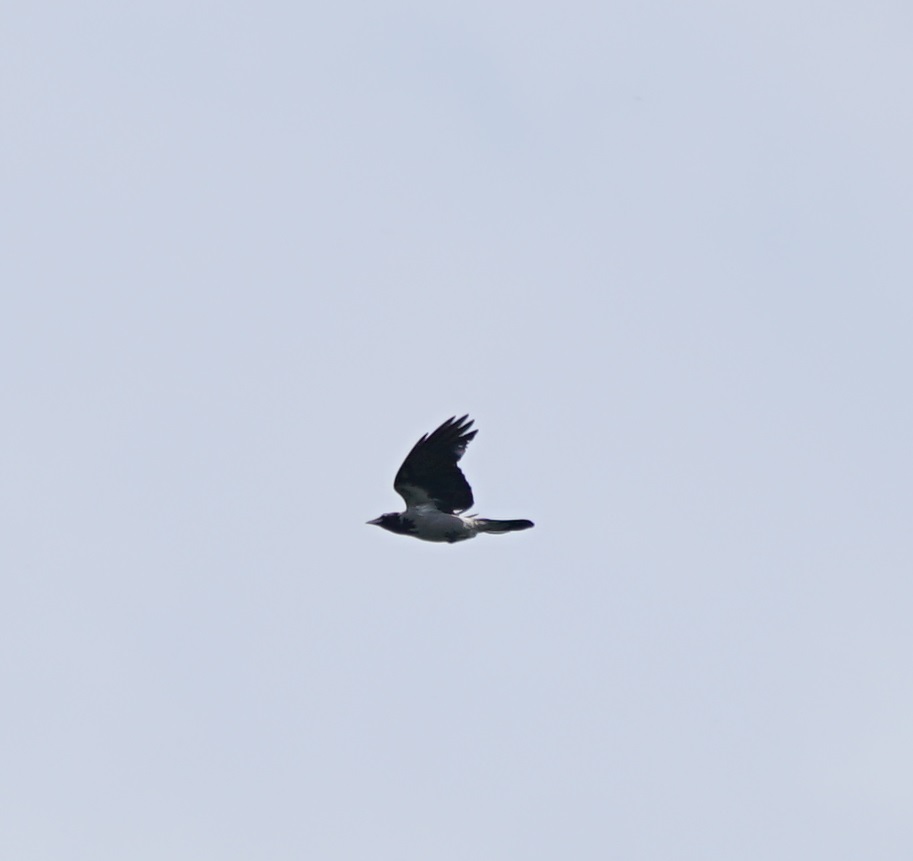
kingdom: Animalia
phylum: Chordata
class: Aves
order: Passeriformes
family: Corvidae
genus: Corvus
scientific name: Corvus cornix
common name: Hooded crow
